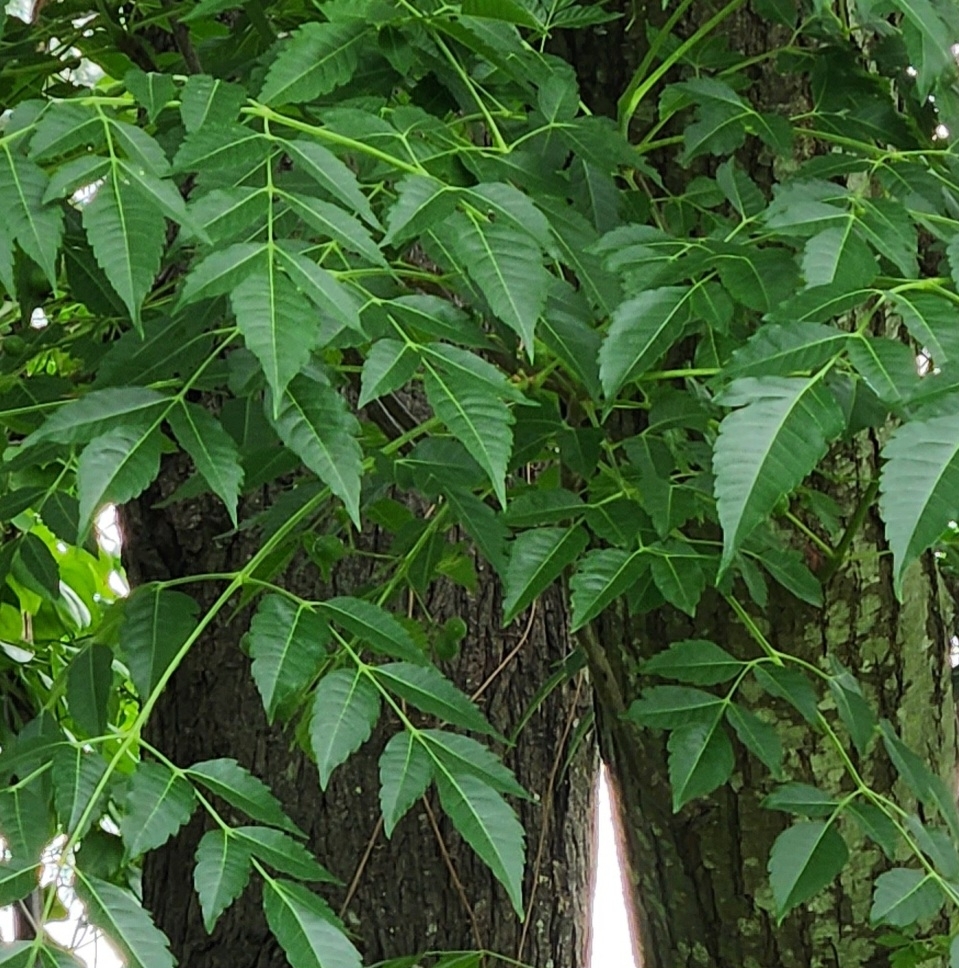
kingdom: Plantae
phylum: Tracheophyta
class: Magnoliopsida
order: Sapindales
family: Meliaceae
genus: Melia
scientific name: Melia azedarach
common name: Chinaberrytree
